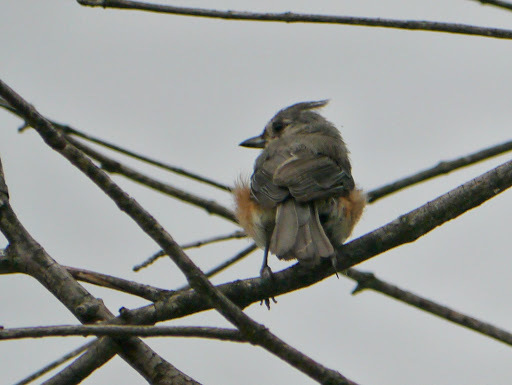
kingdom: Animalia
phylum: Chordata
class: Aves
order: Passeriformes
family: Paridae
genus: Baeolophus
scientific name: Baeolophus bicolor
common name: Tufted titmouse
